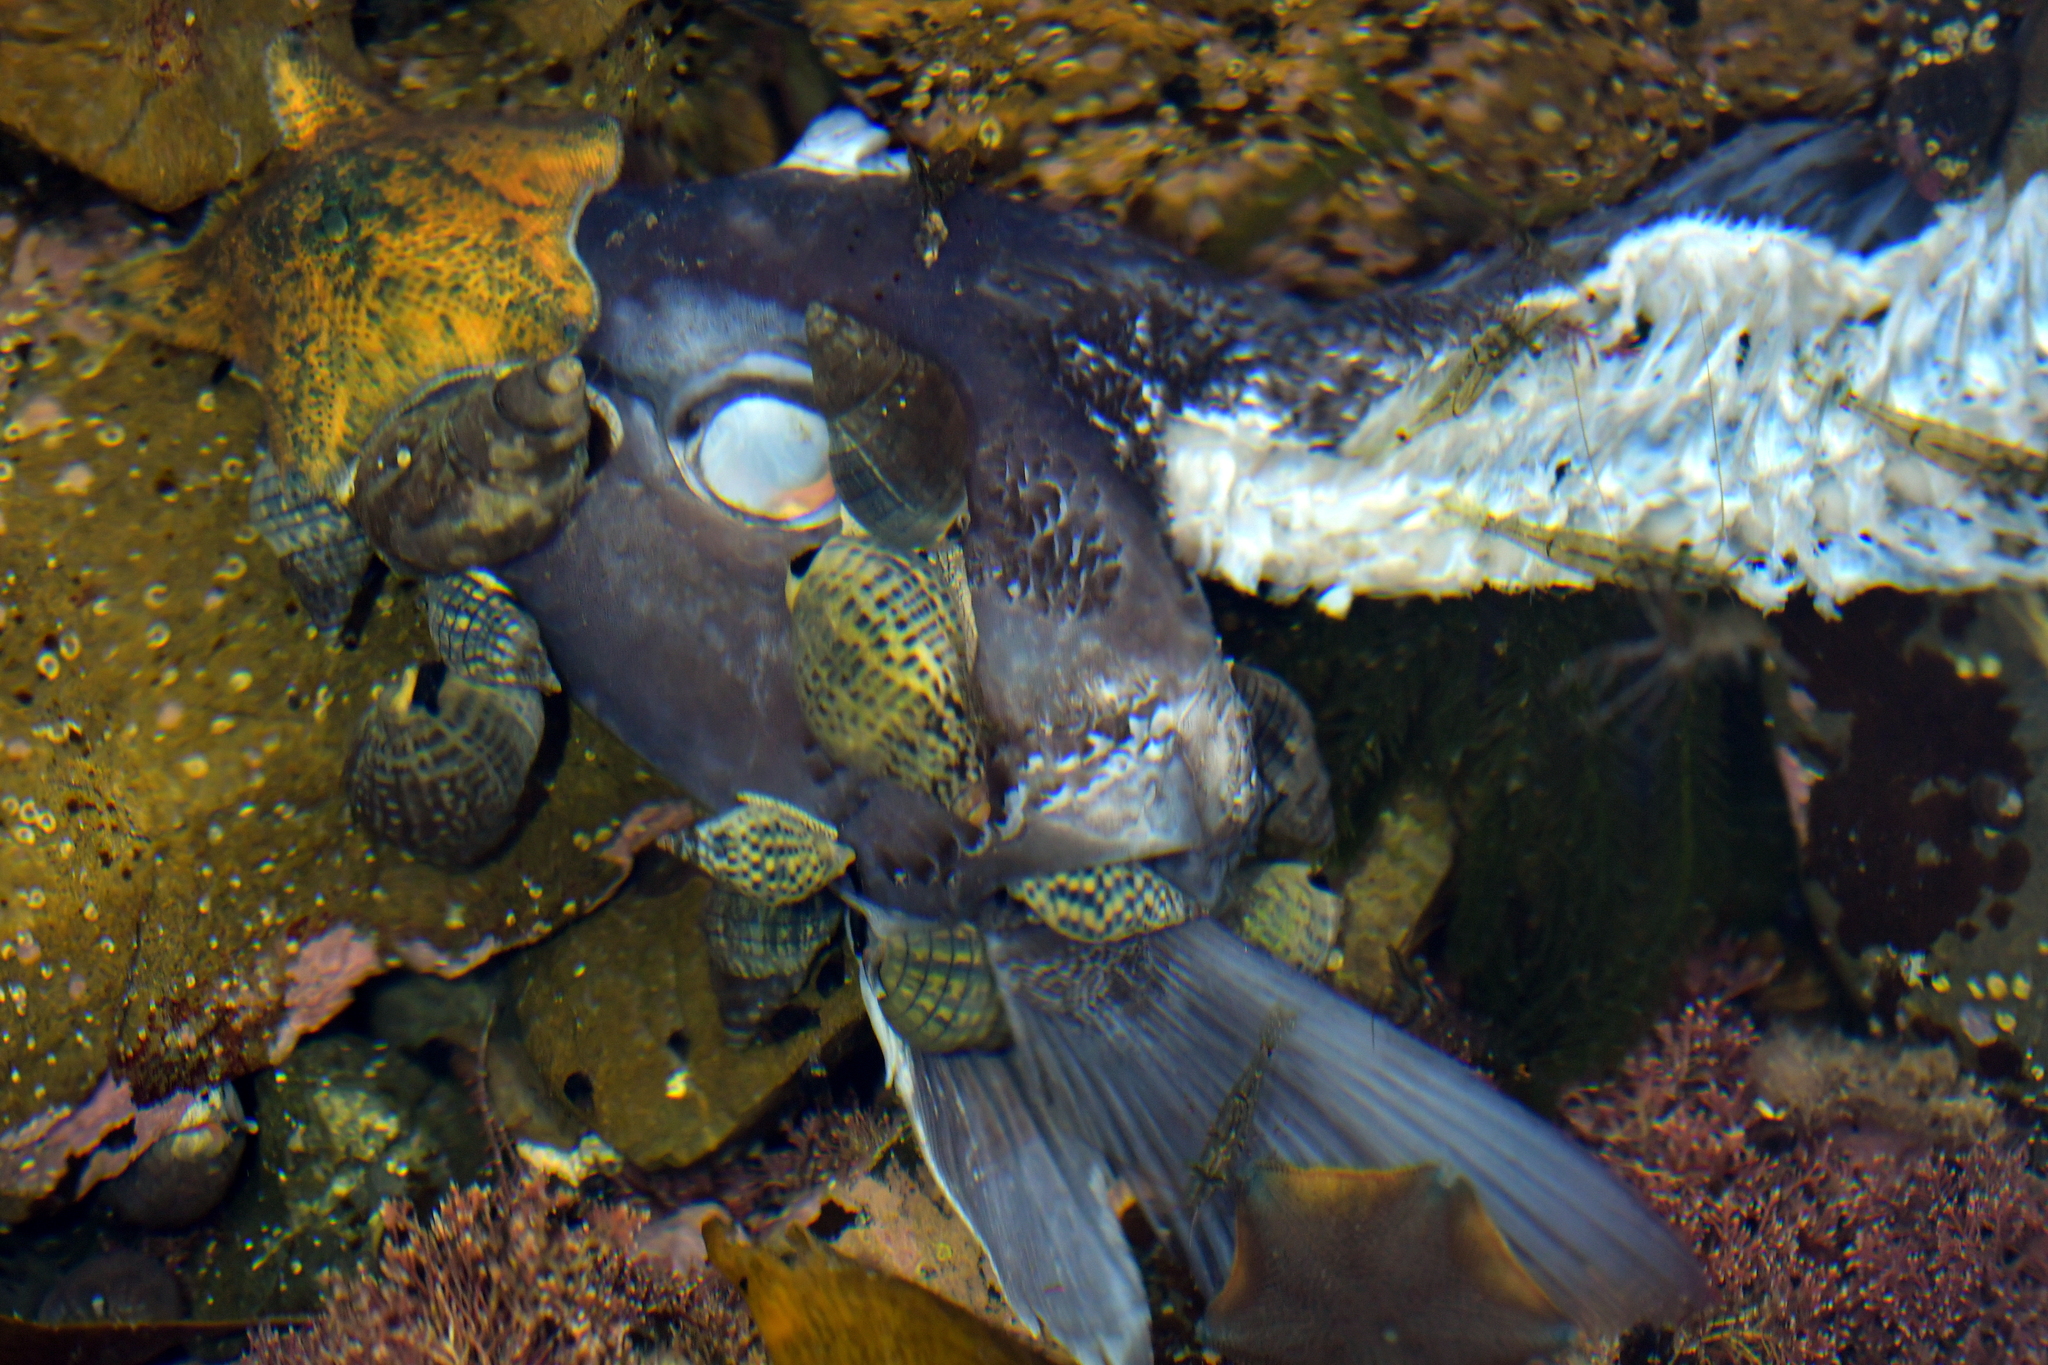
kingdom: Animalia
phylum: Mollusca
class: Gastropoda
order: Neogastropoda
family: Cominellidae
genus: Cominella
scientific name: Cominella maculosa
